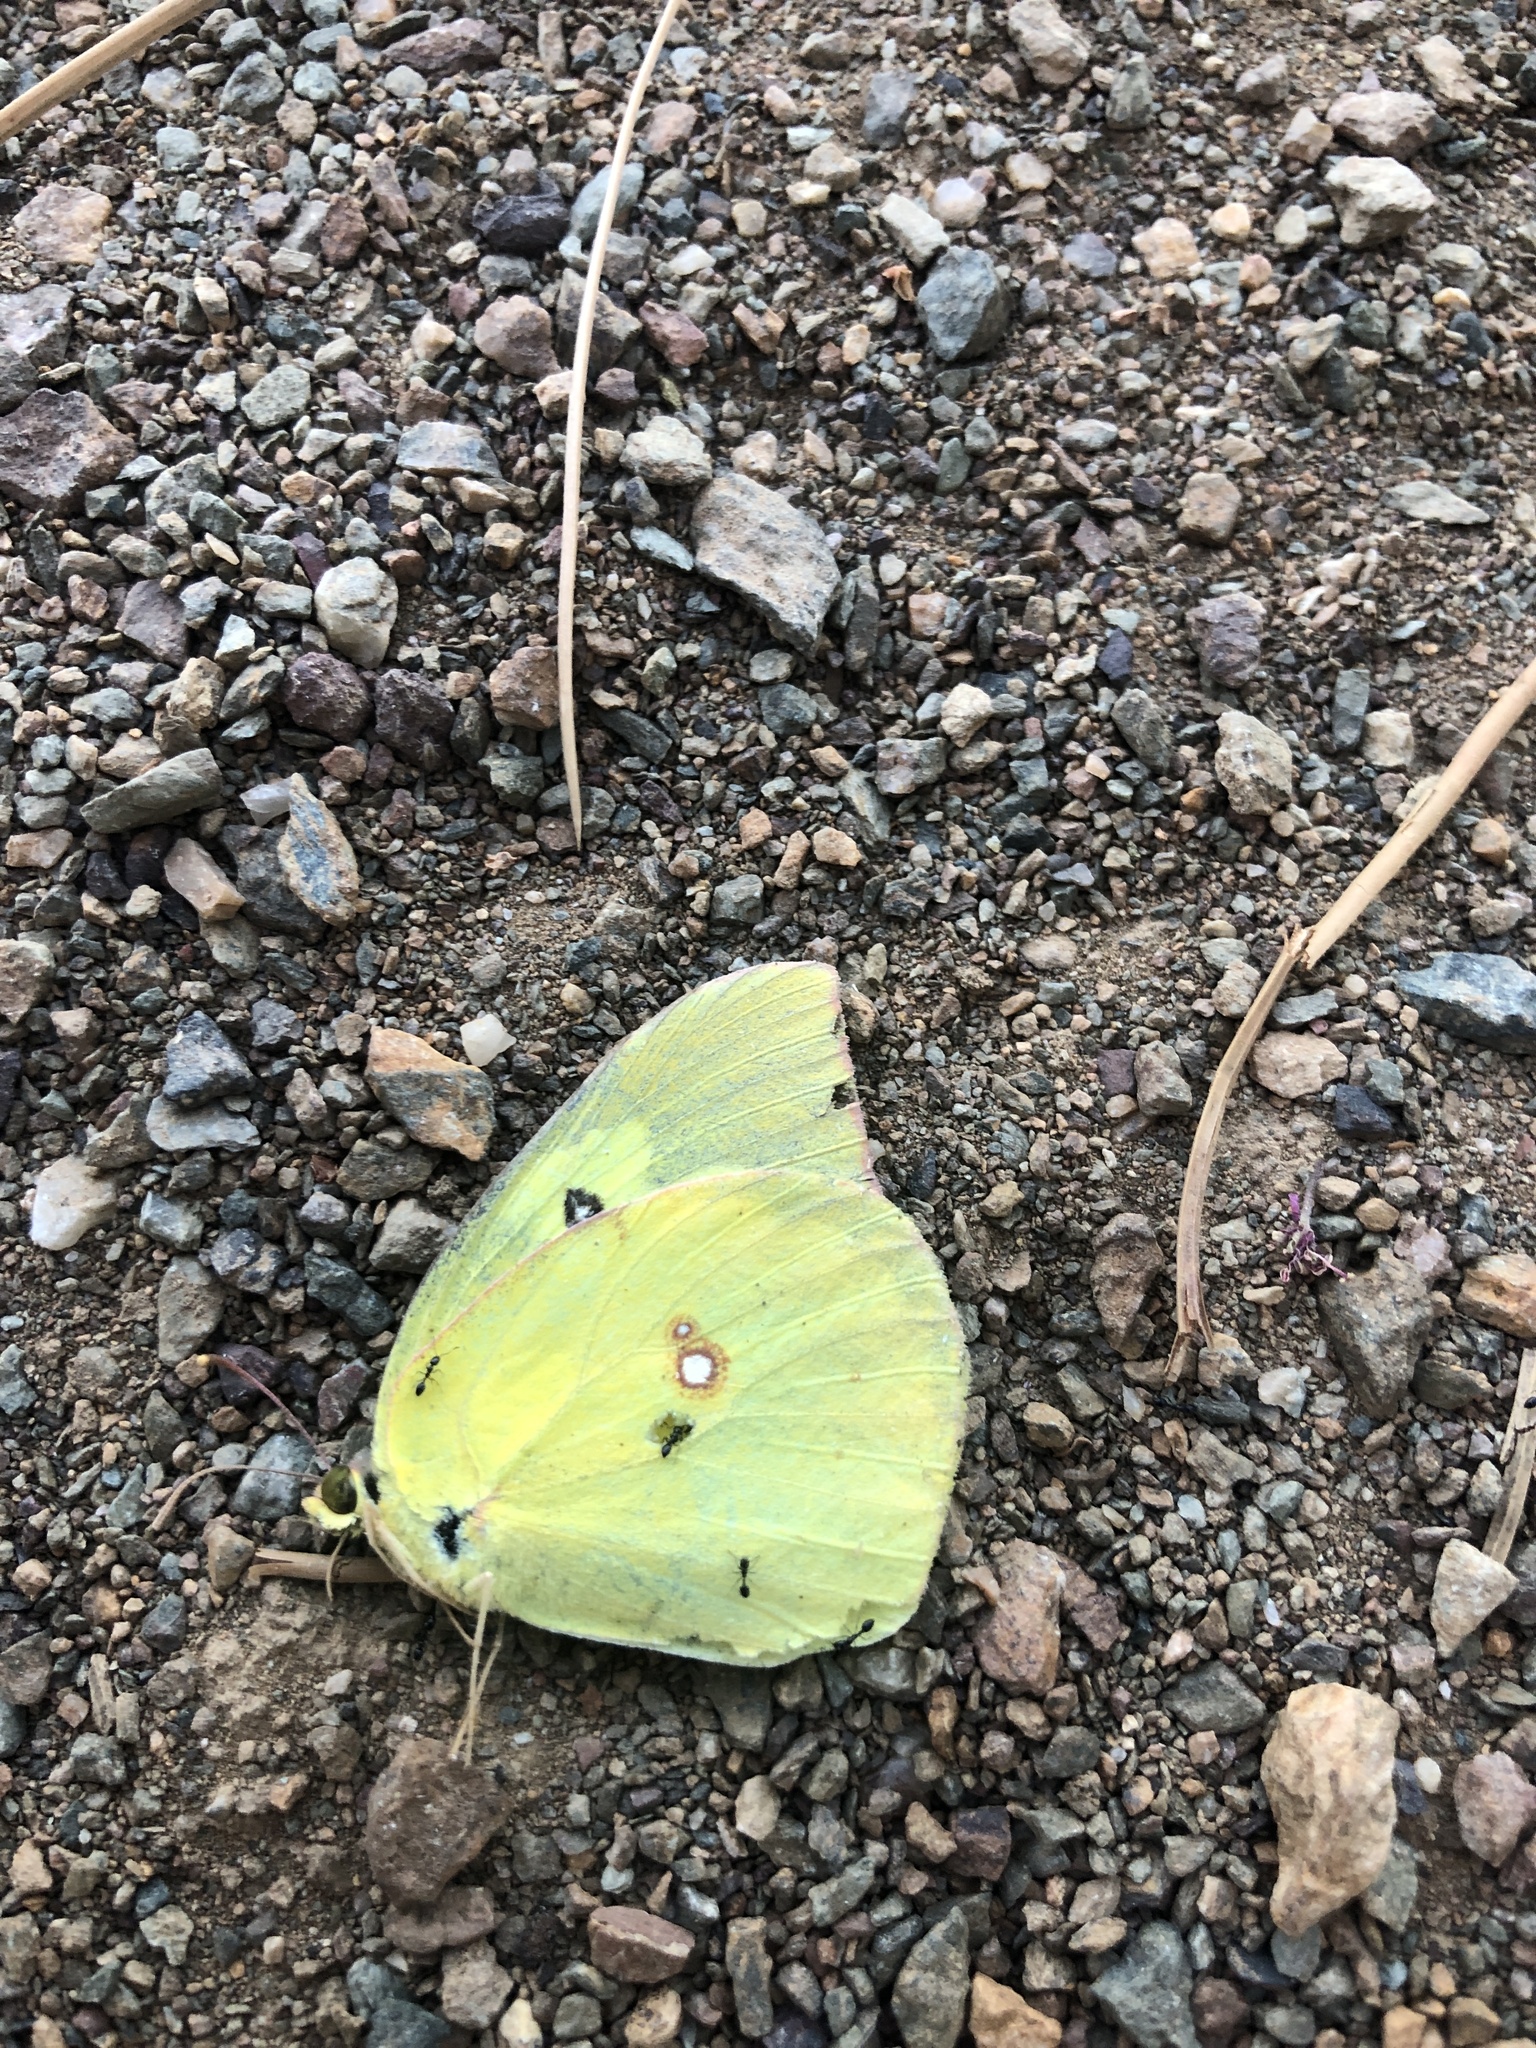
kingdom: Animalia
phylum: Arthropoda
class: Insecta
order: Lepidoptera
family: Pieridae
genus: Zerene
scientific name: Zerene cesonia
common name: Southern dogface
